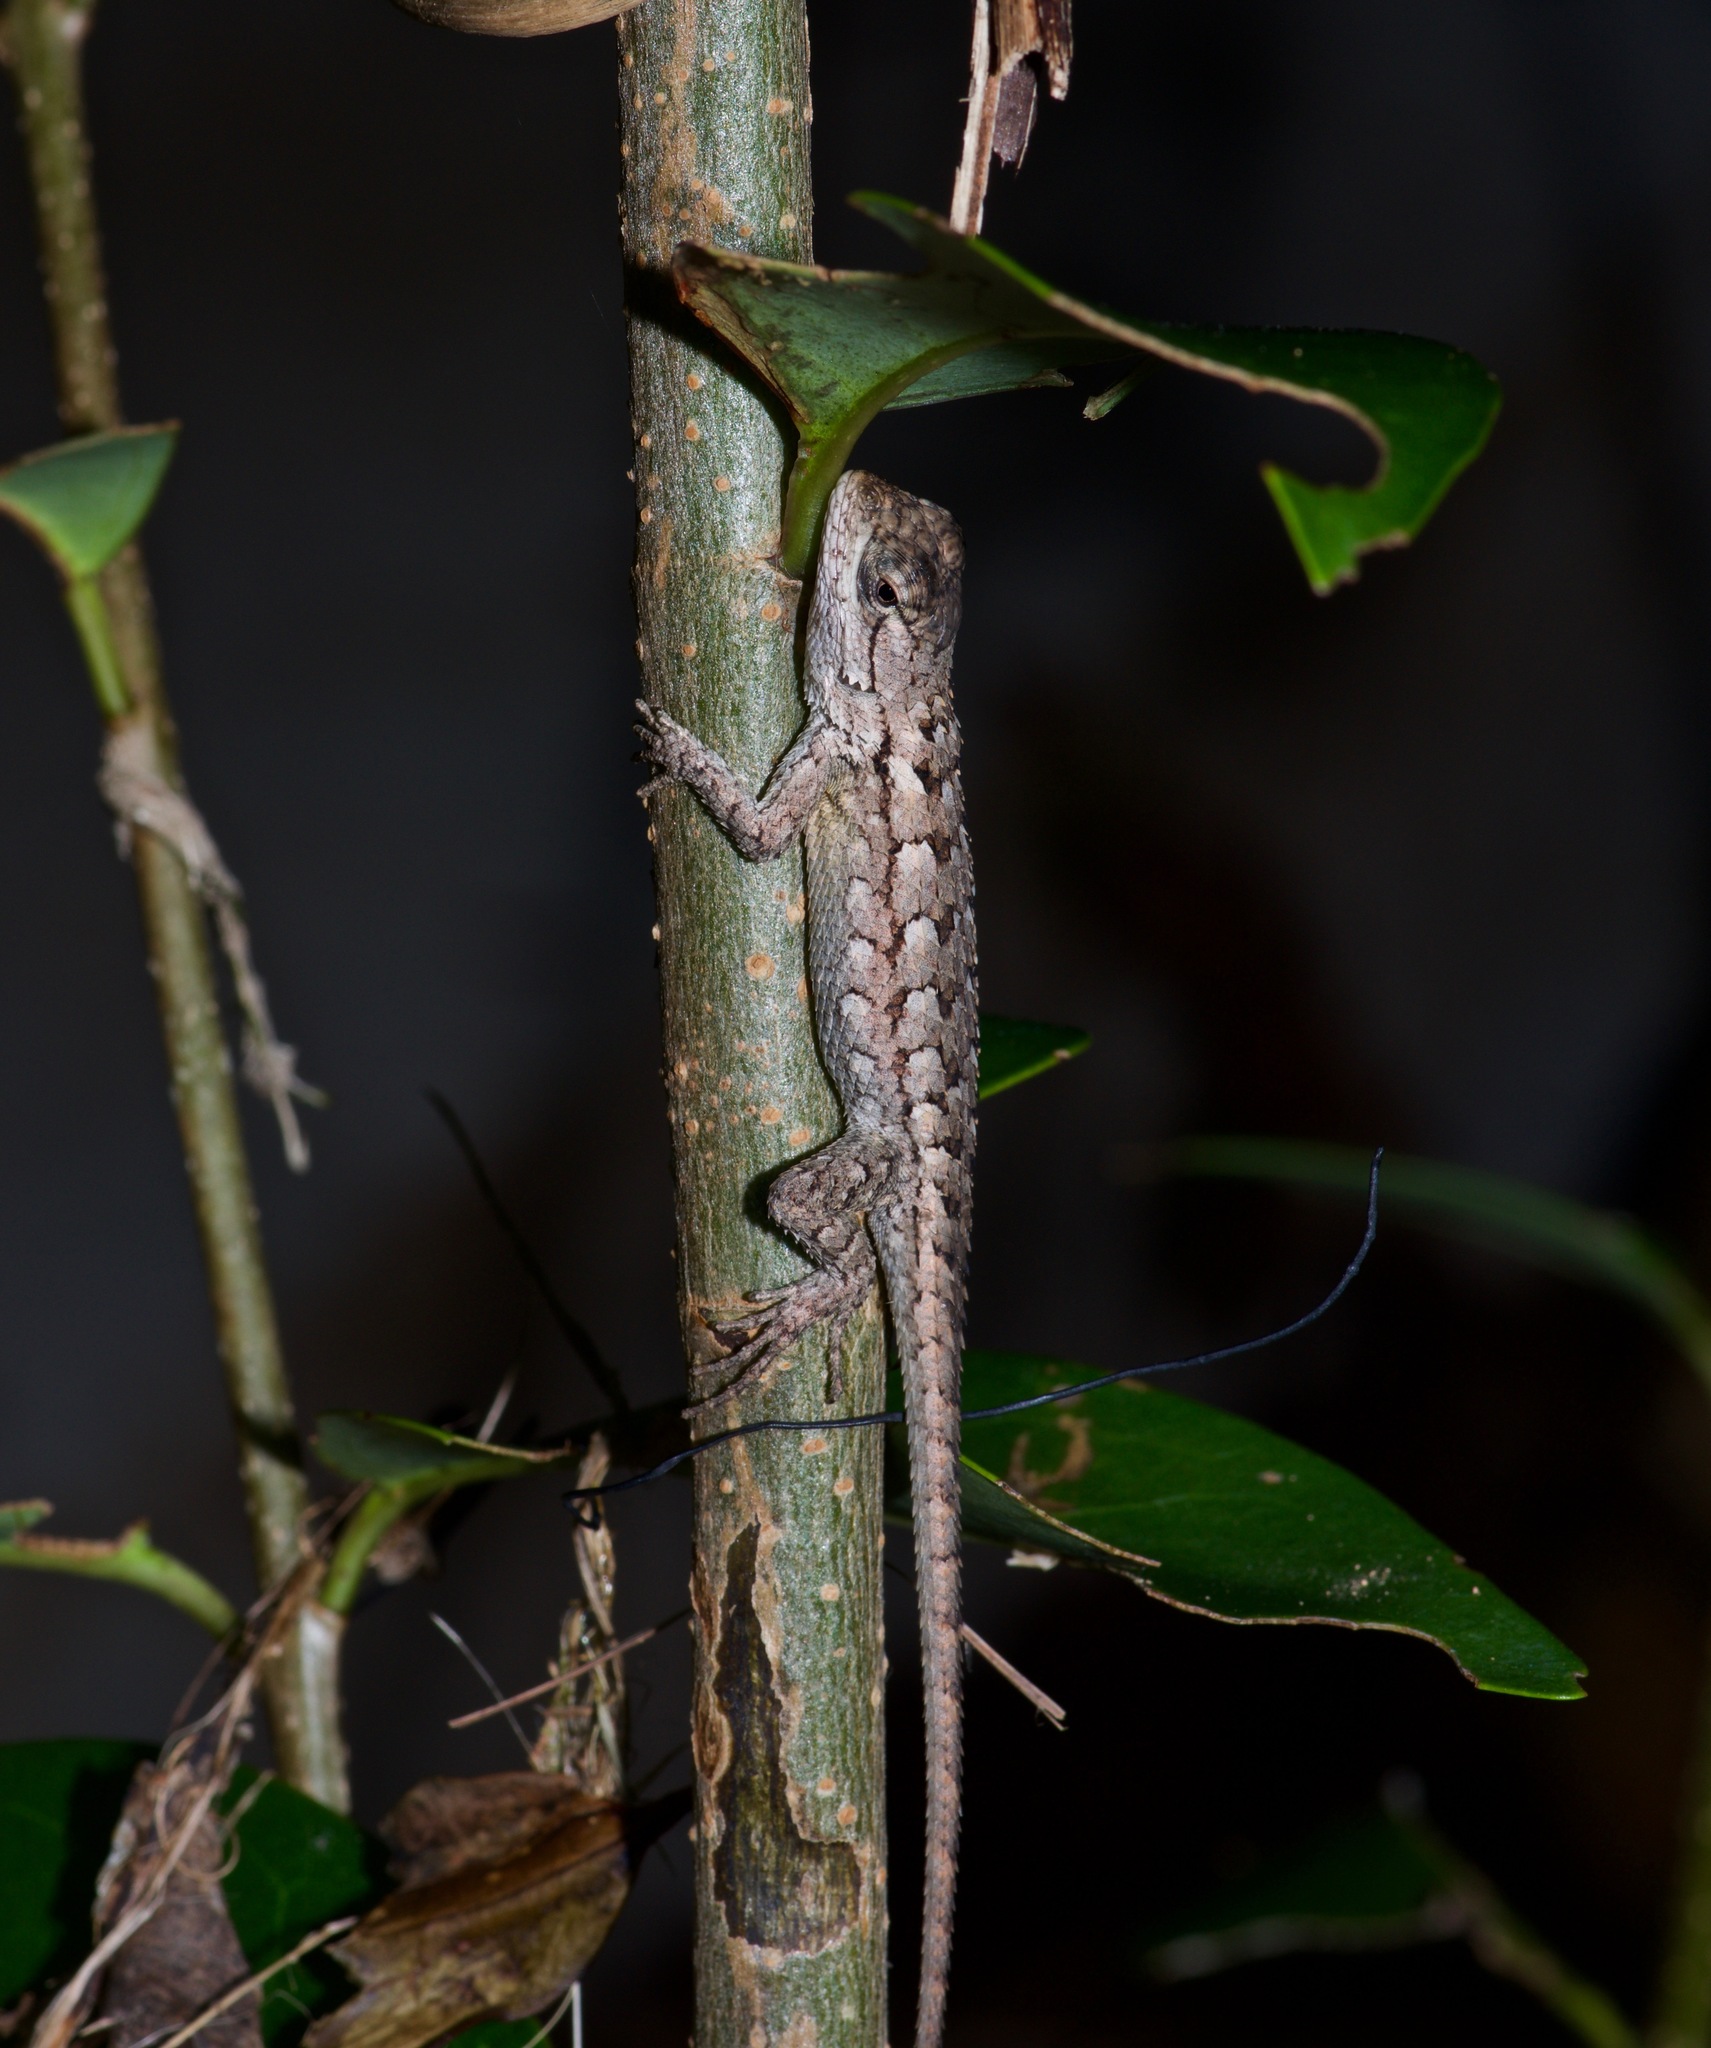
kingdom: Animalia
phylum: Chordata
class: Squamata
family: Phrynosomatidae
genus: Sceloporus
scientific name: Sceloporus olivaceus
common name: Texas spiny lizard
